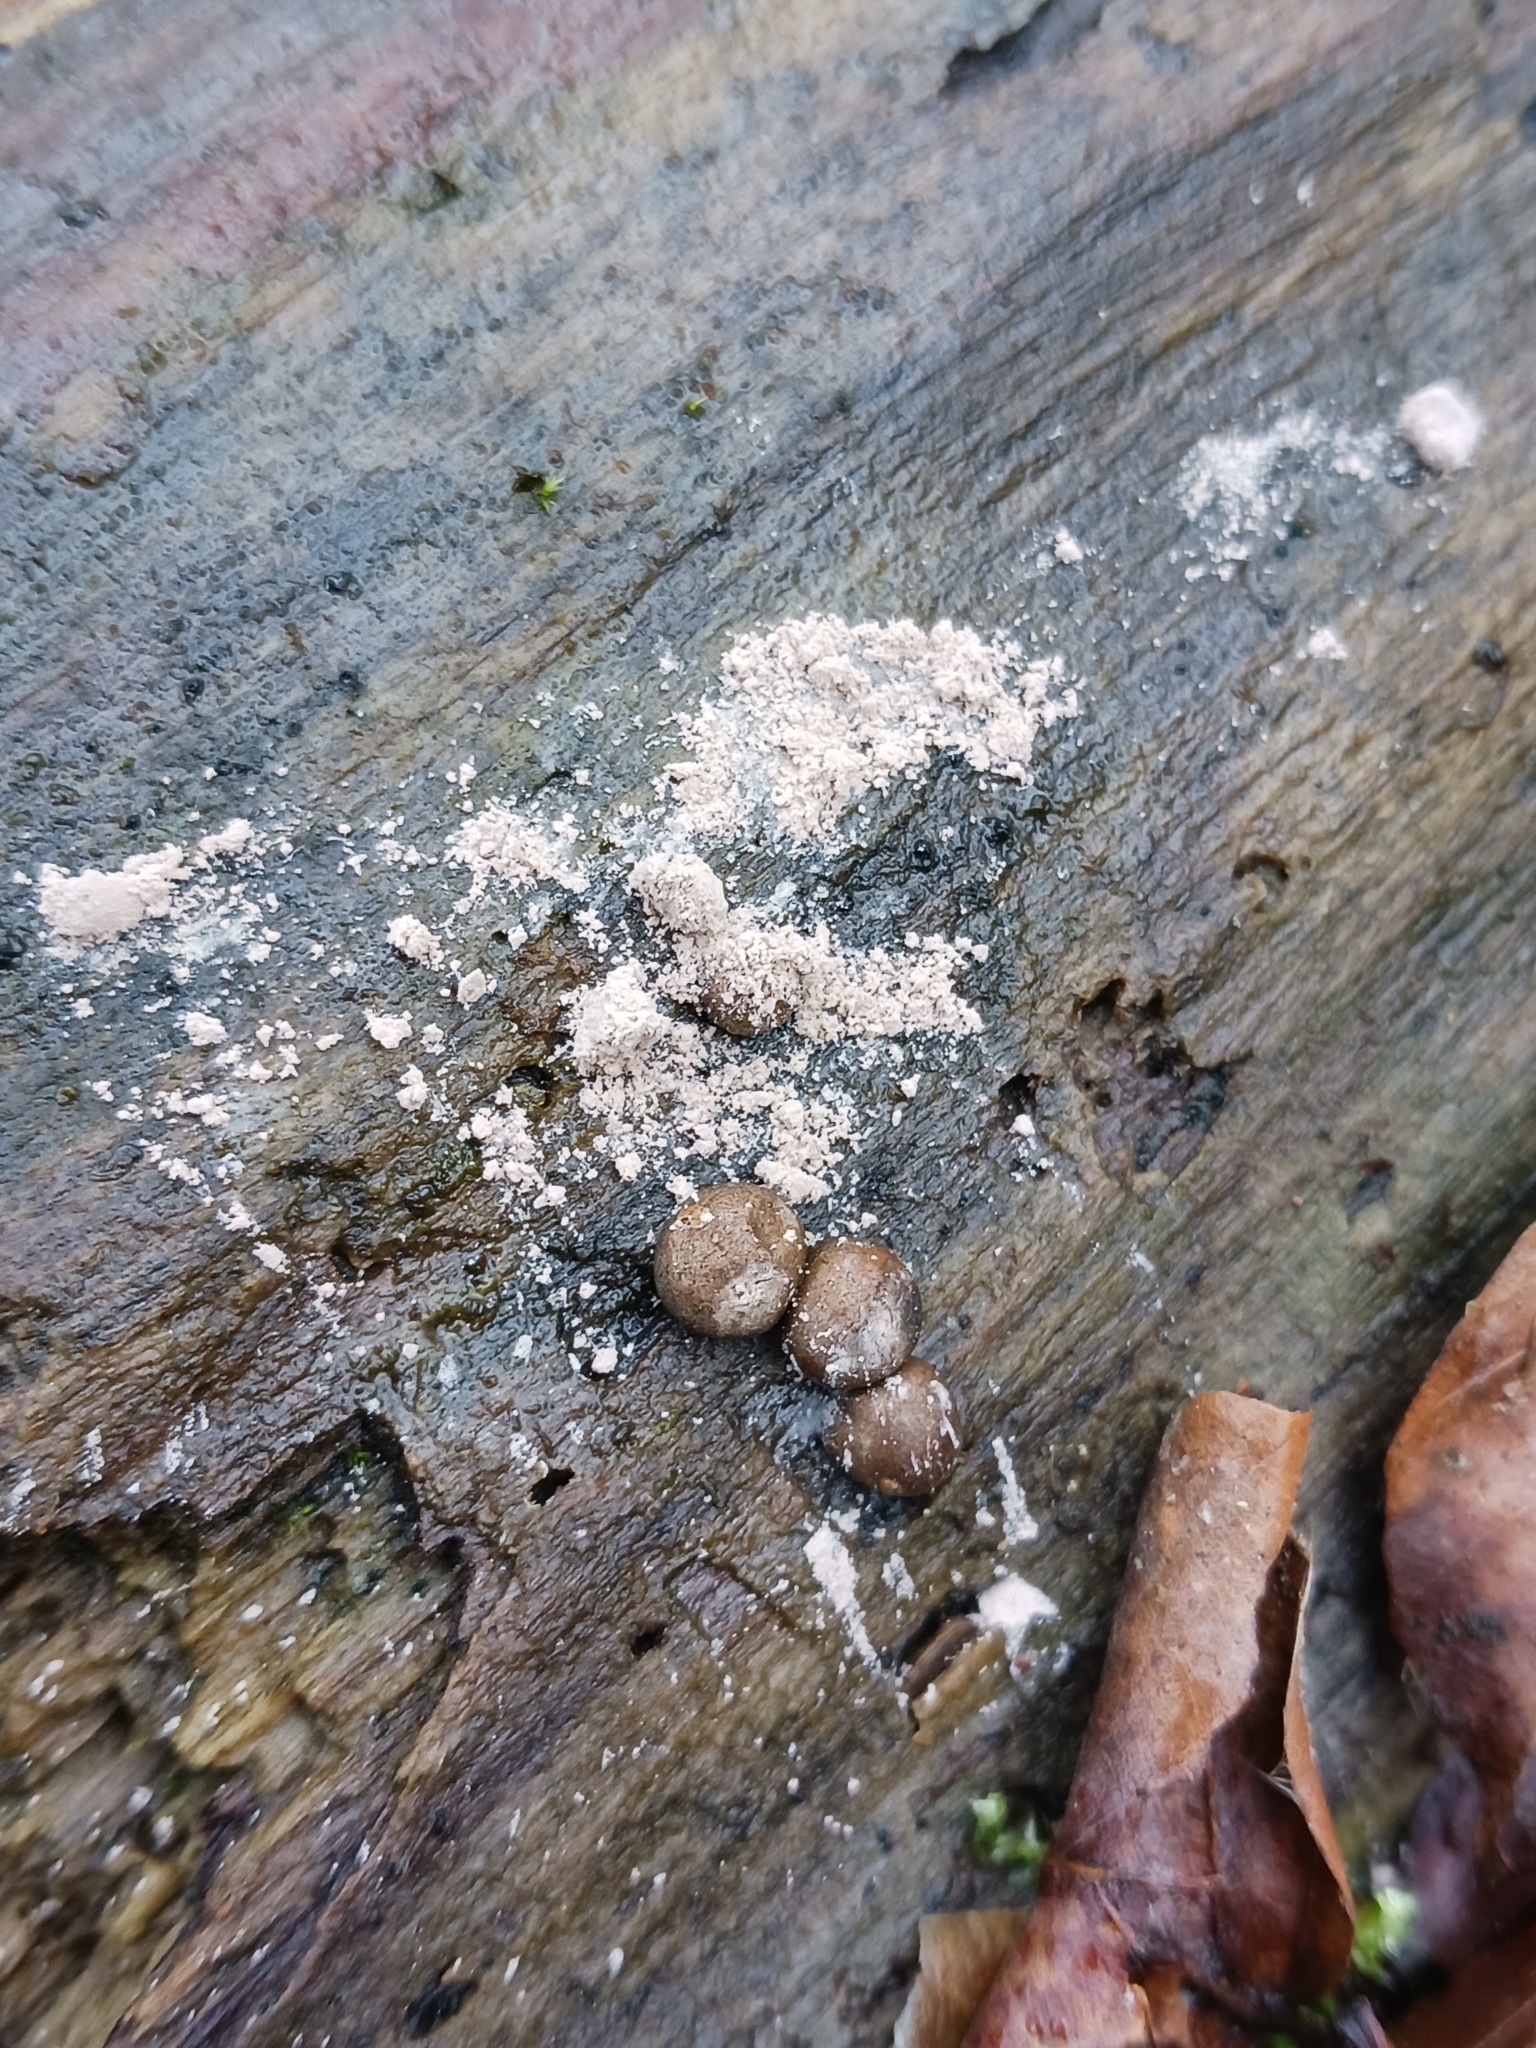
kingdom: Protozoa
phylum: Mycetozoa
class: Myxomycetes
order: Cribrariales
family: Tubiferaceae
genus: Lycogala
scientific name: Lycogala
